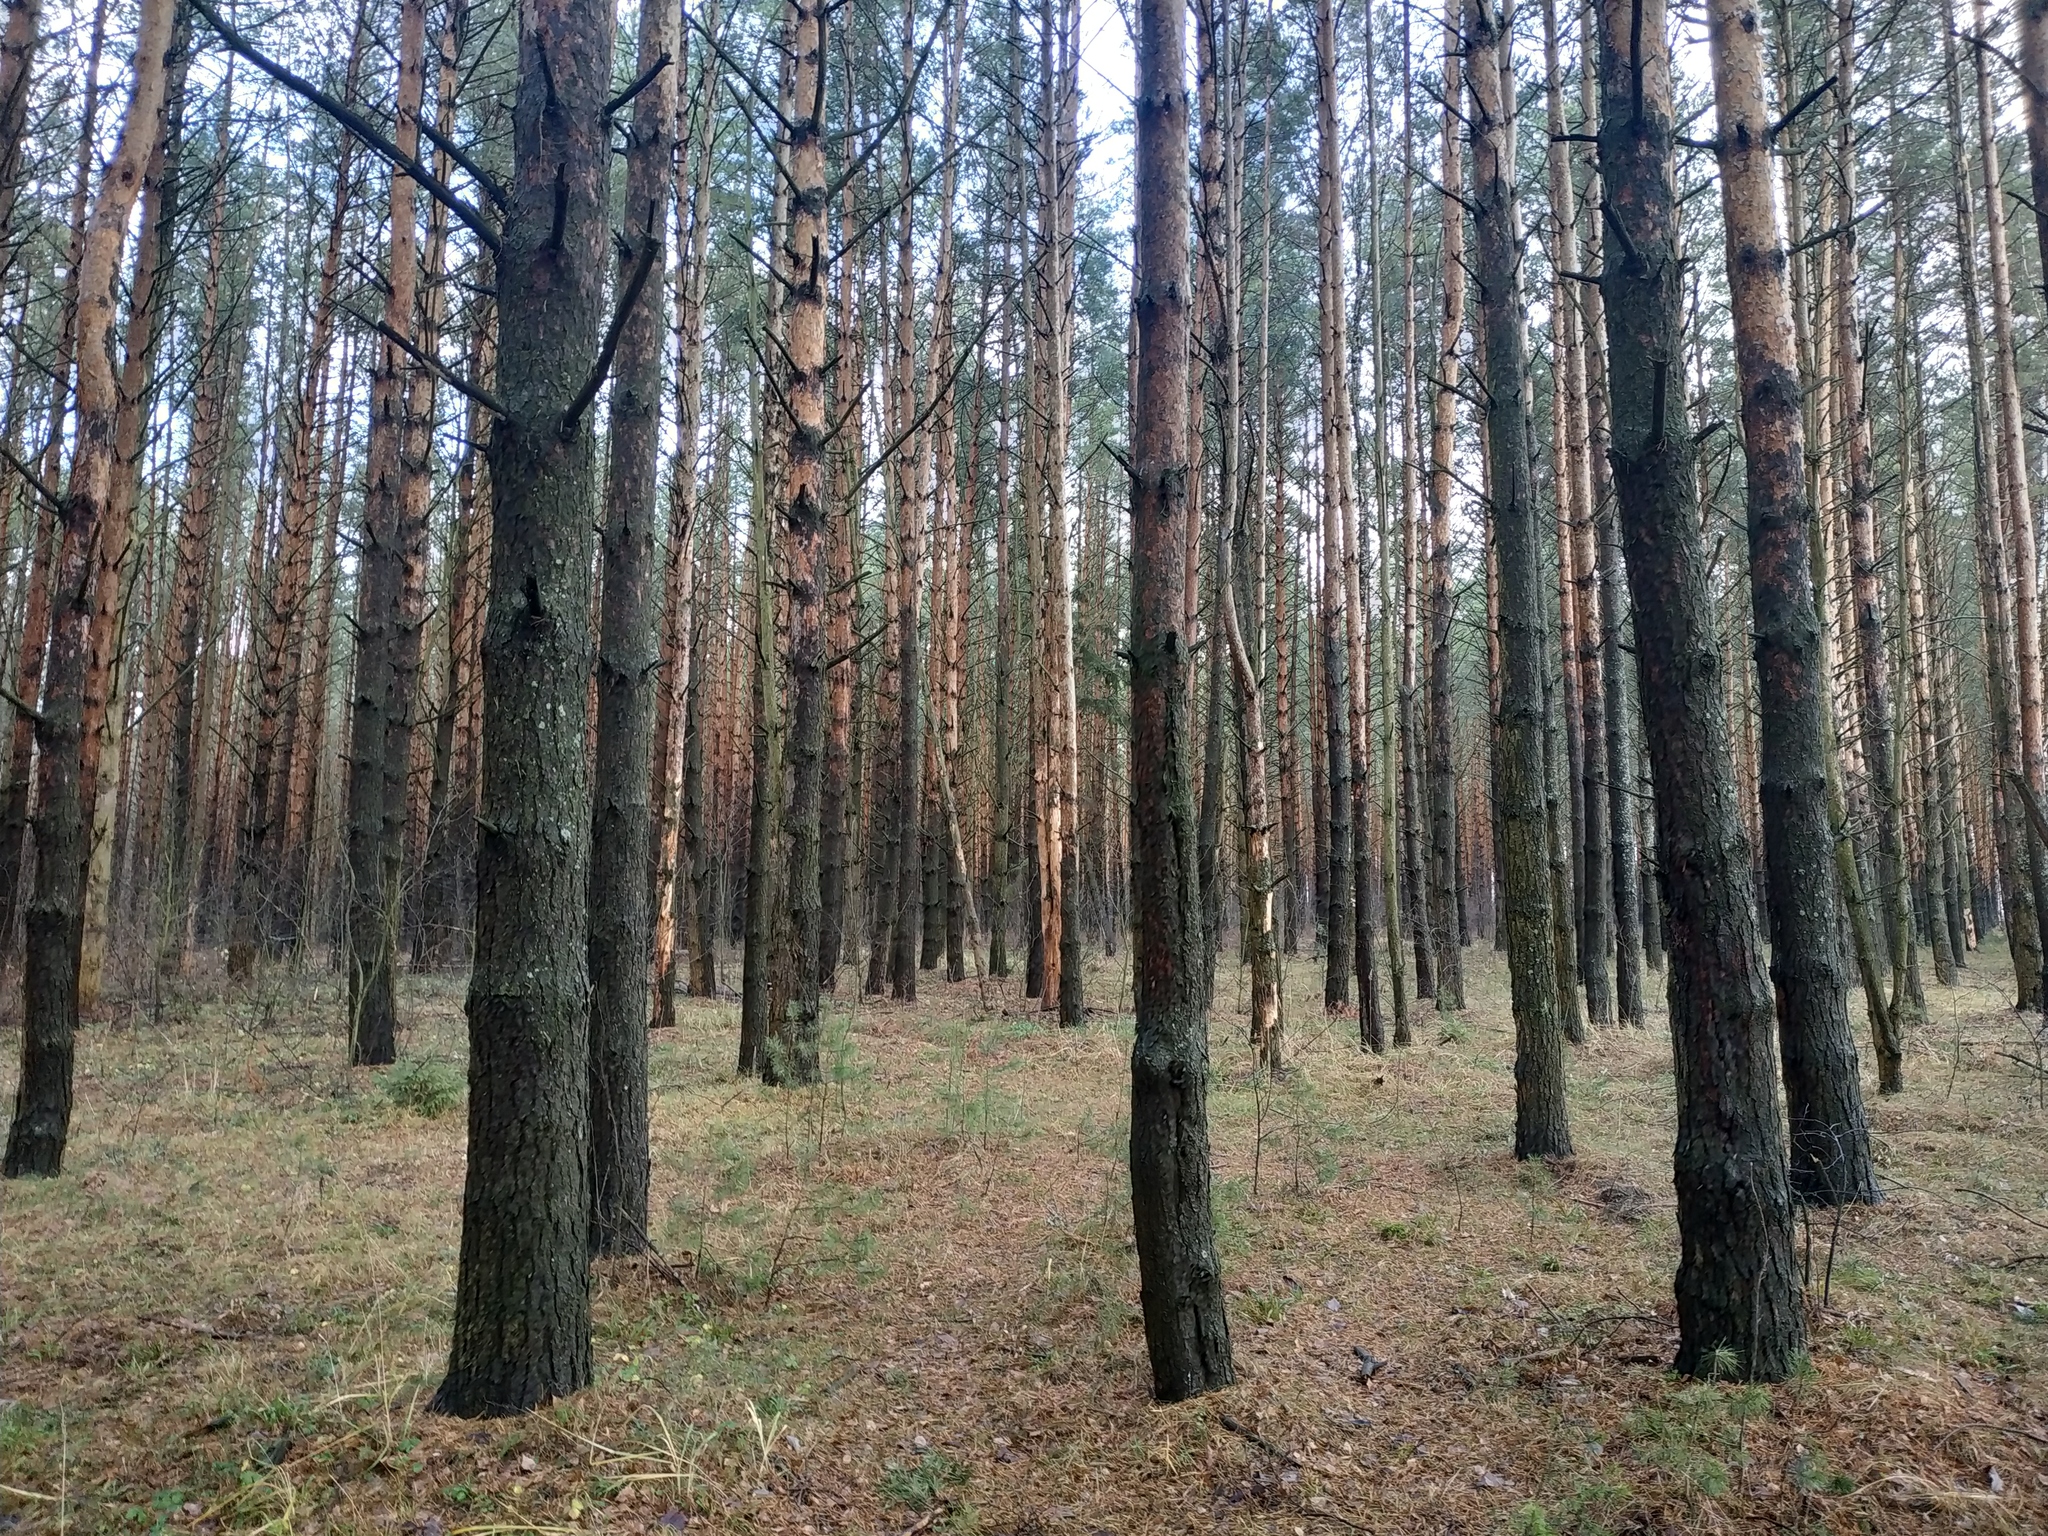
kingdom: Plantae
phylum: Tracheophyta
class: Pinopsida
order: Pinales
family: Pinaceae
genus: Pinus
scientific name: Pinus sylvestris
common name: Scots pine
